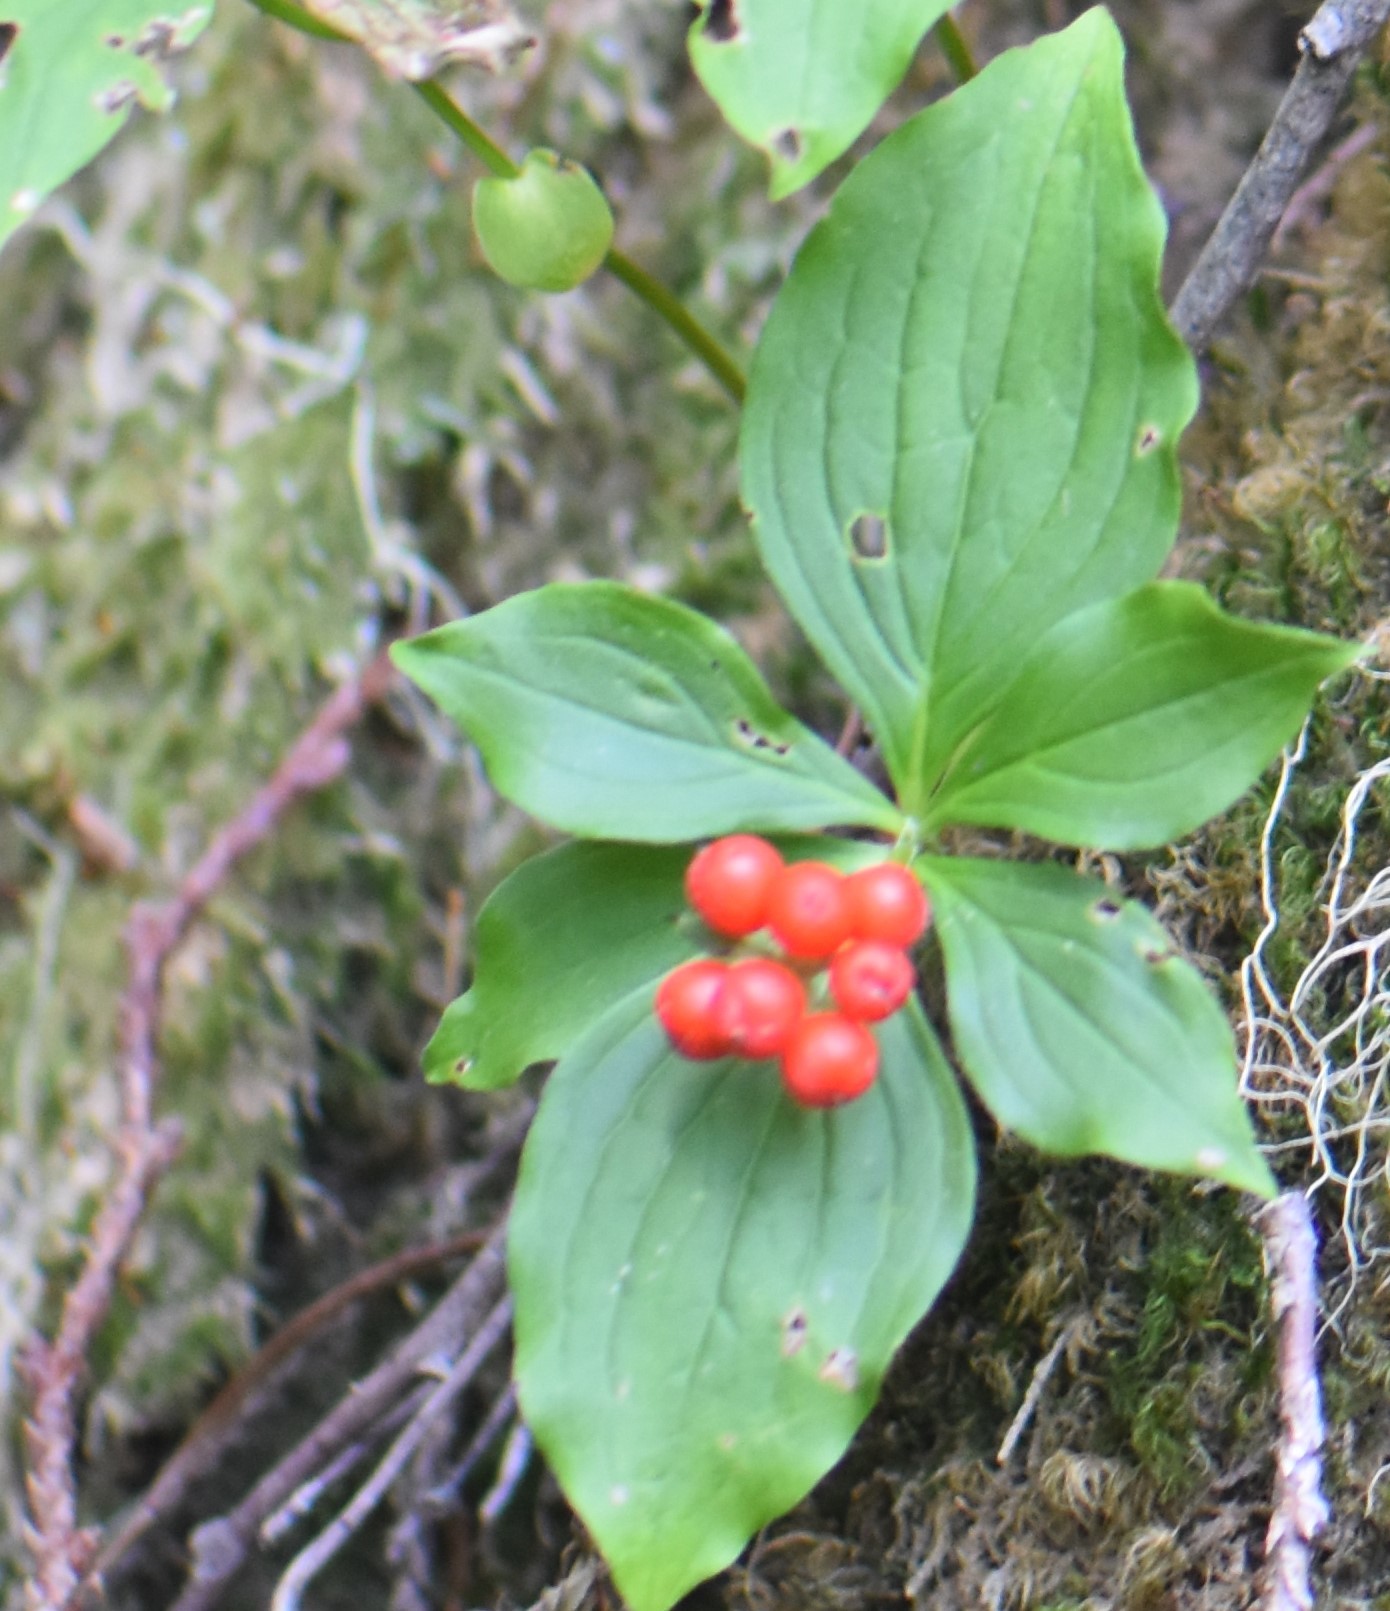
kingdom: Plantae
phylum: Tracheophyta
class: Magnoliopsida
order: Cornales
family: Cornaceae
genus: Cornus
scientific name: Cornus unalaschkensis
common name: Alaska bunchberry
